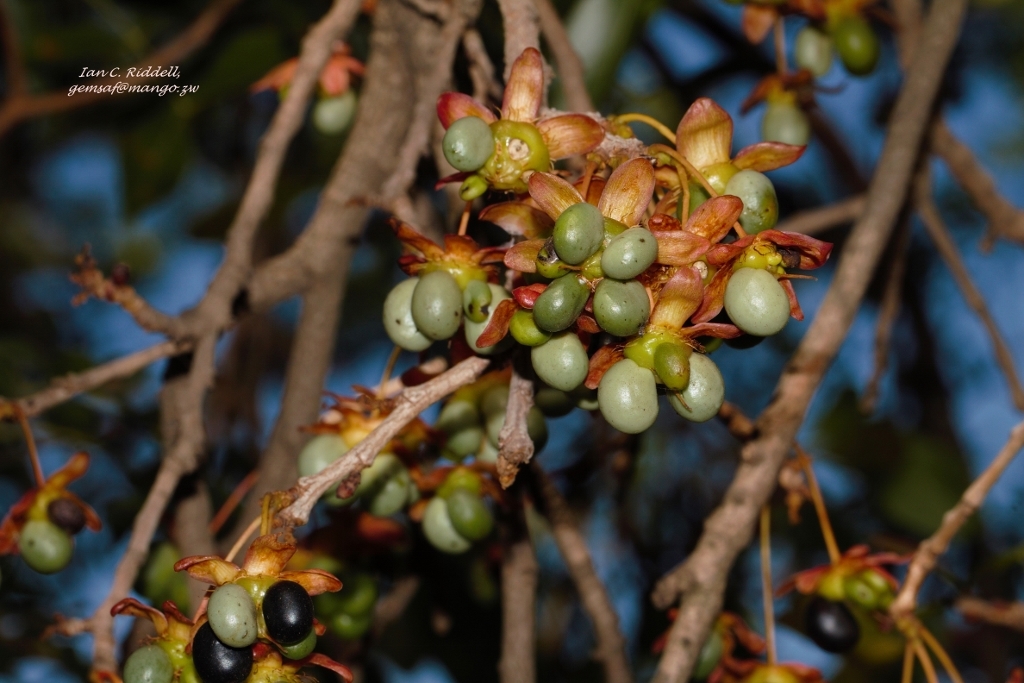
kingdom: Plantae
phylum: Tracheophyta
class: Magnoliopsida
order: Malpighiales
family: Ochnaceae
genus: Ochna
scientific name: Ochna schweinfurthiana
